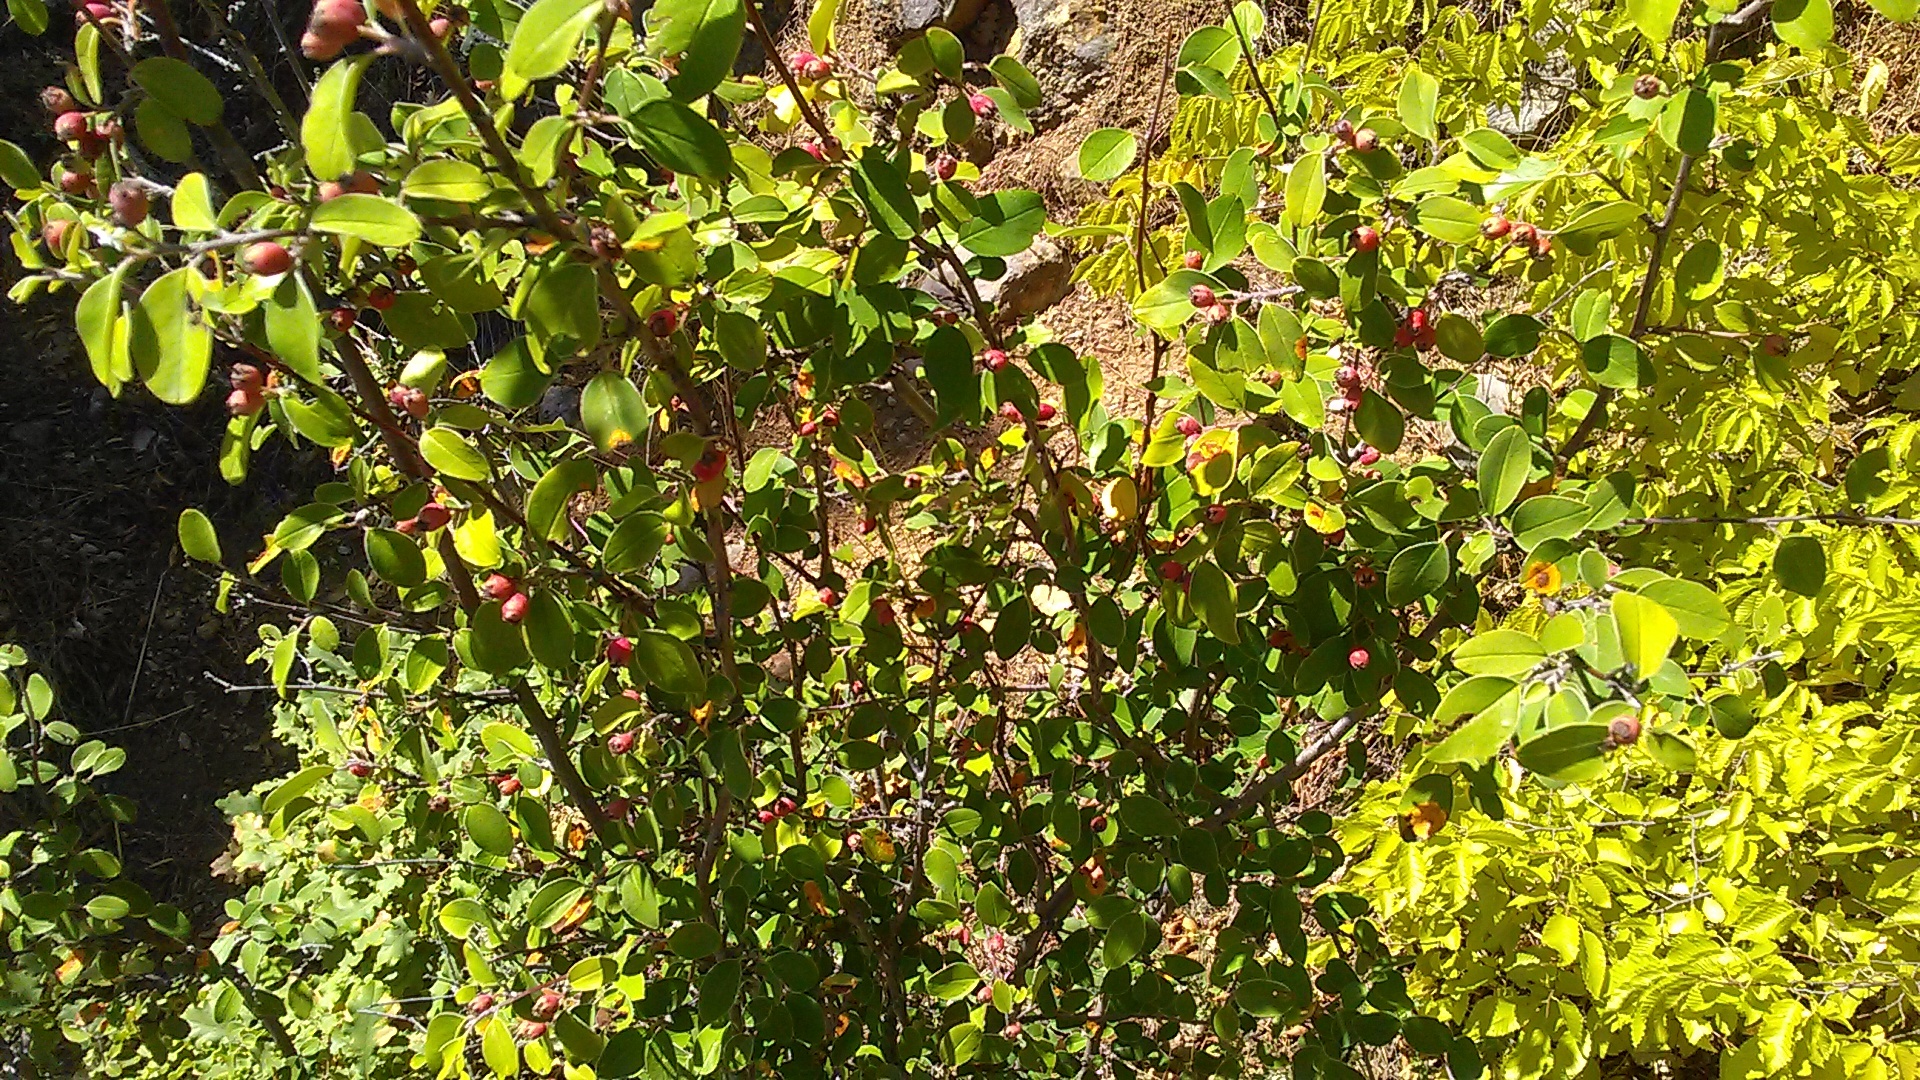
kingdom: Plantae
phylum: Tracheophyta
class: Magnoliopsida
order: Rosales
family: Rosaceae
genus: Cotoneaster
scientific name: Cotoneaster tauricus
